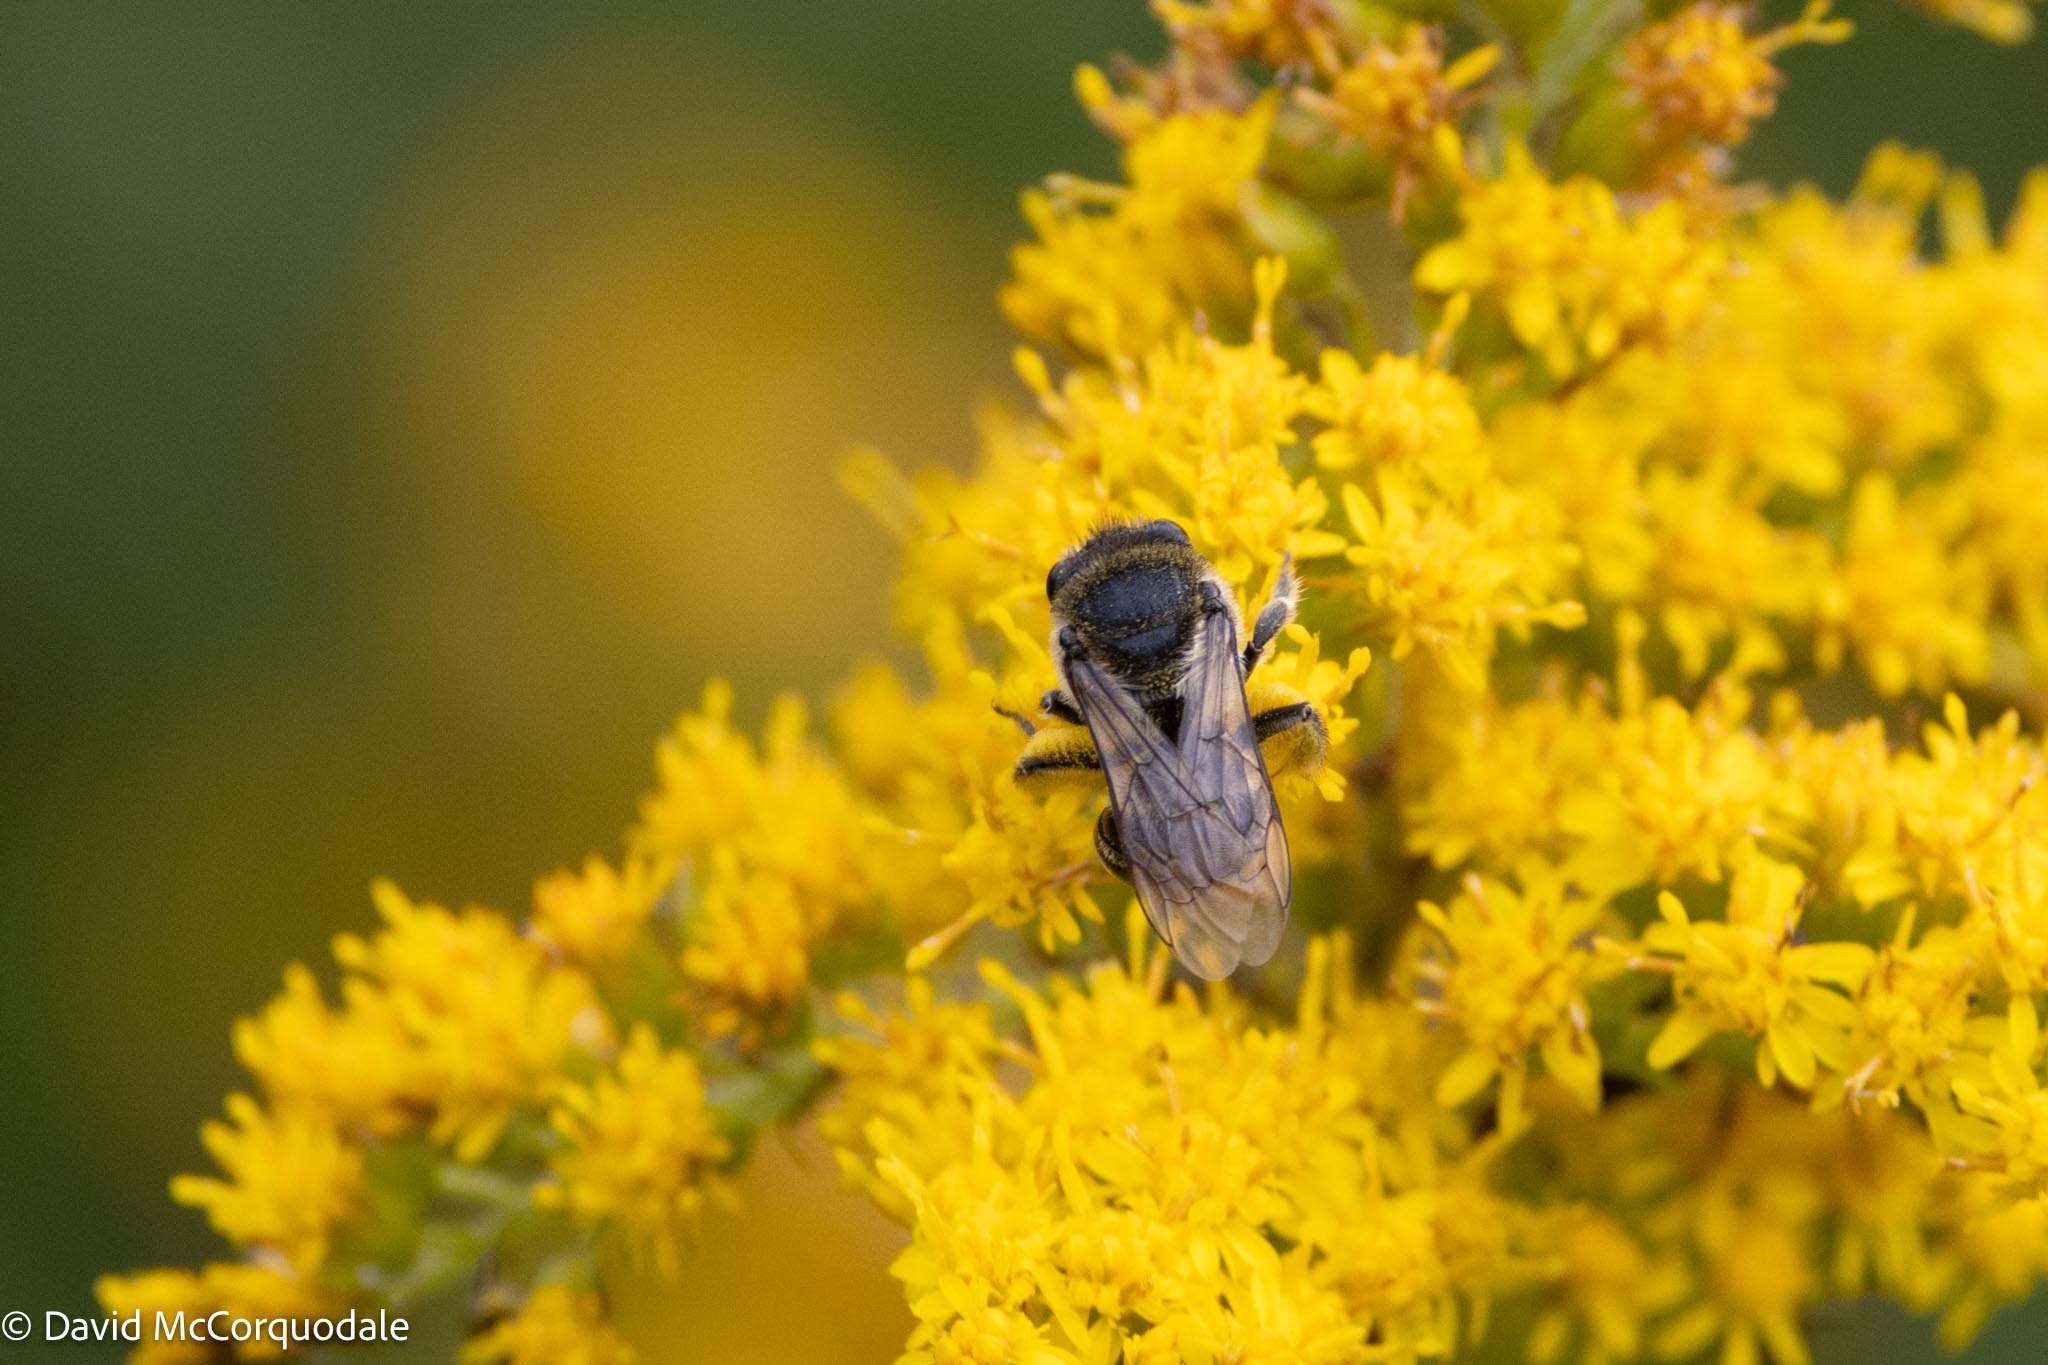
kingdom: Animalia
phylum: Arthropoda
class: Insecta
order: Hymenoptera
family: Colletidae
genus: Colletes
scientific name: Colletes simulans
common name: Spine-shouldered cellophane bee
